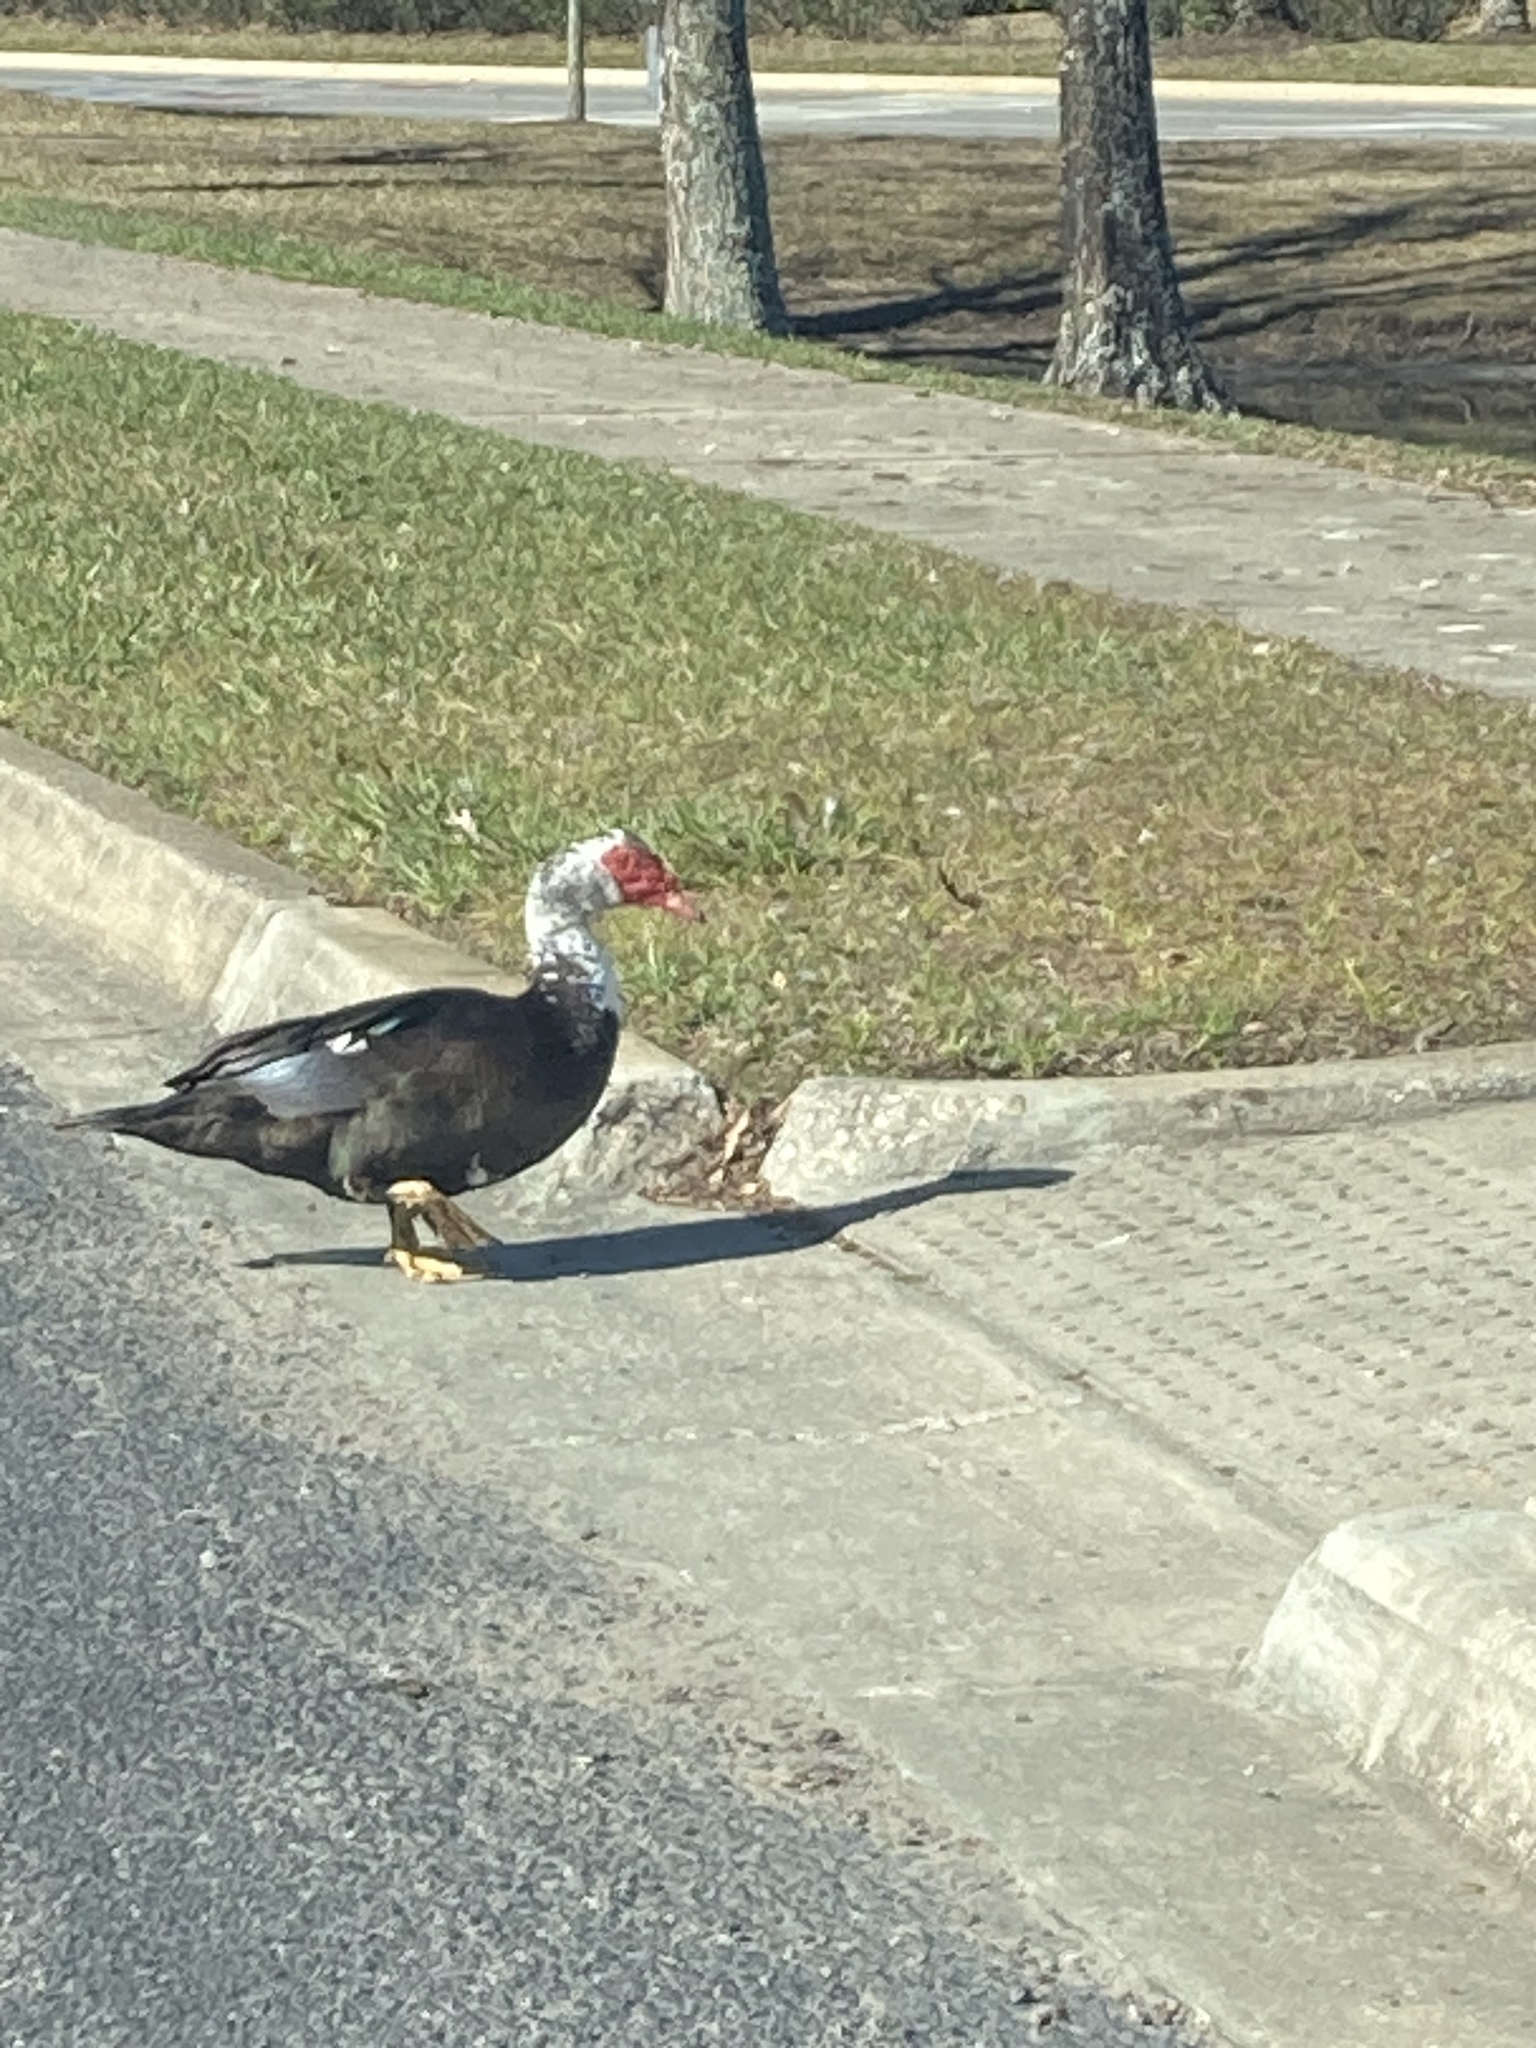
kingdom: Animalia
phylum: Chordata
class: Aves
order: Anseriformes
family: Anatidae
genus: Cairina
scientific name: Cairina moschata
